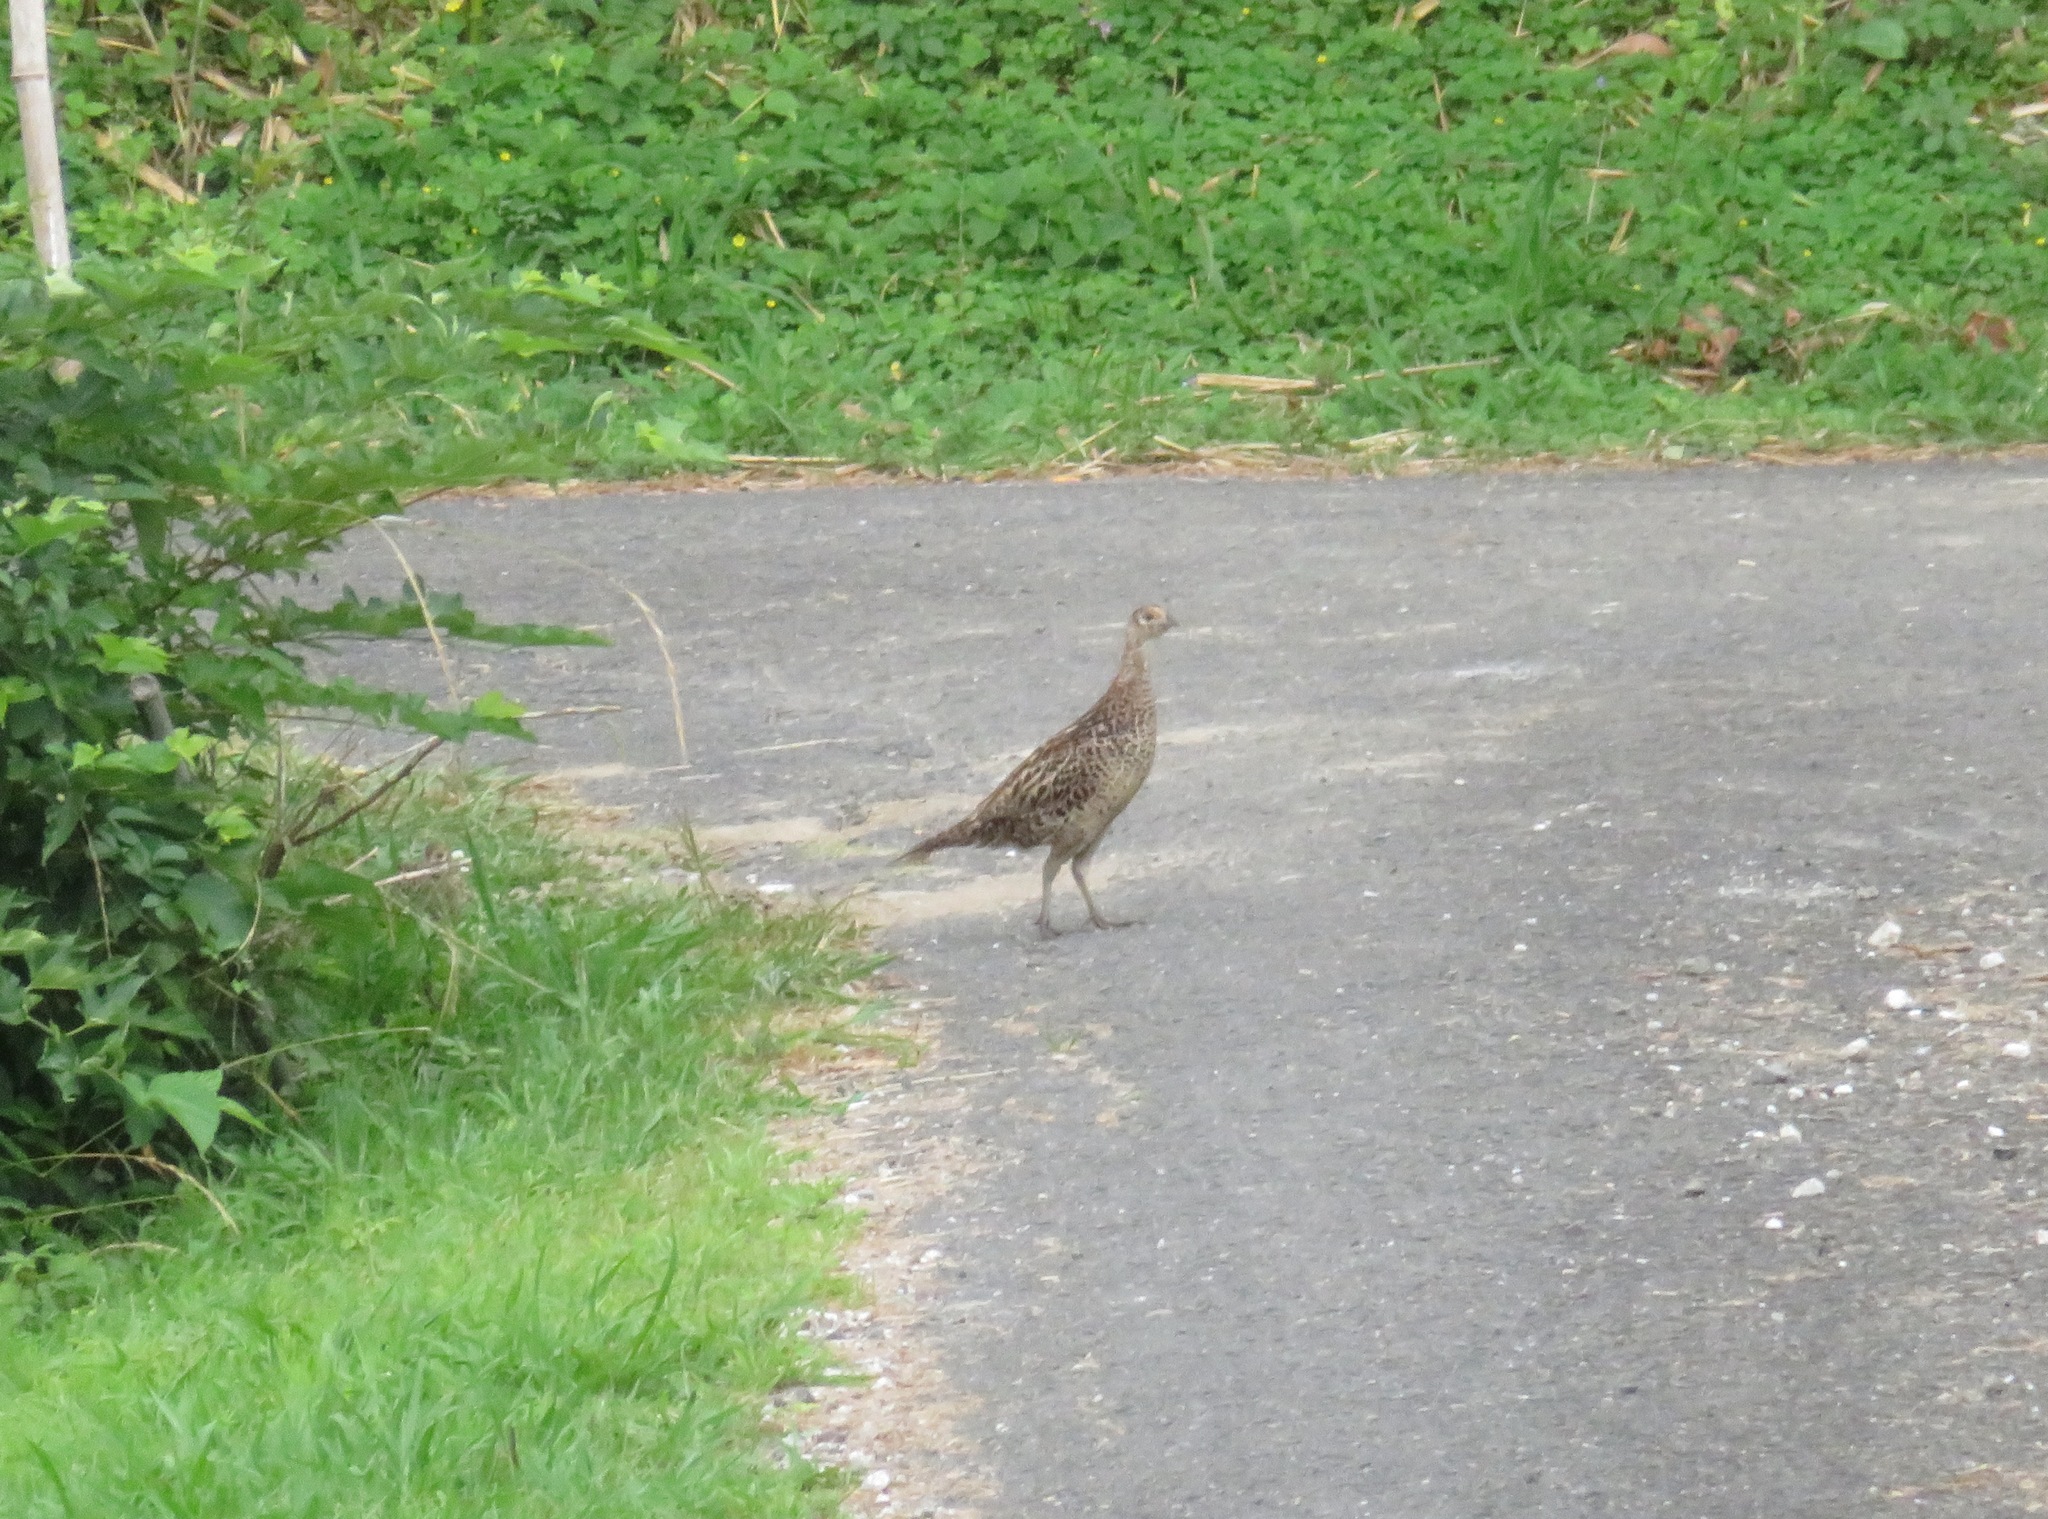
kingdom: Animalia
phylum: Chordata
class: Aves
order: Galliformes
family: Phasianidae
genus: Phasianus
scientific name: Phasianus versicolor
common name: Green pheasant
